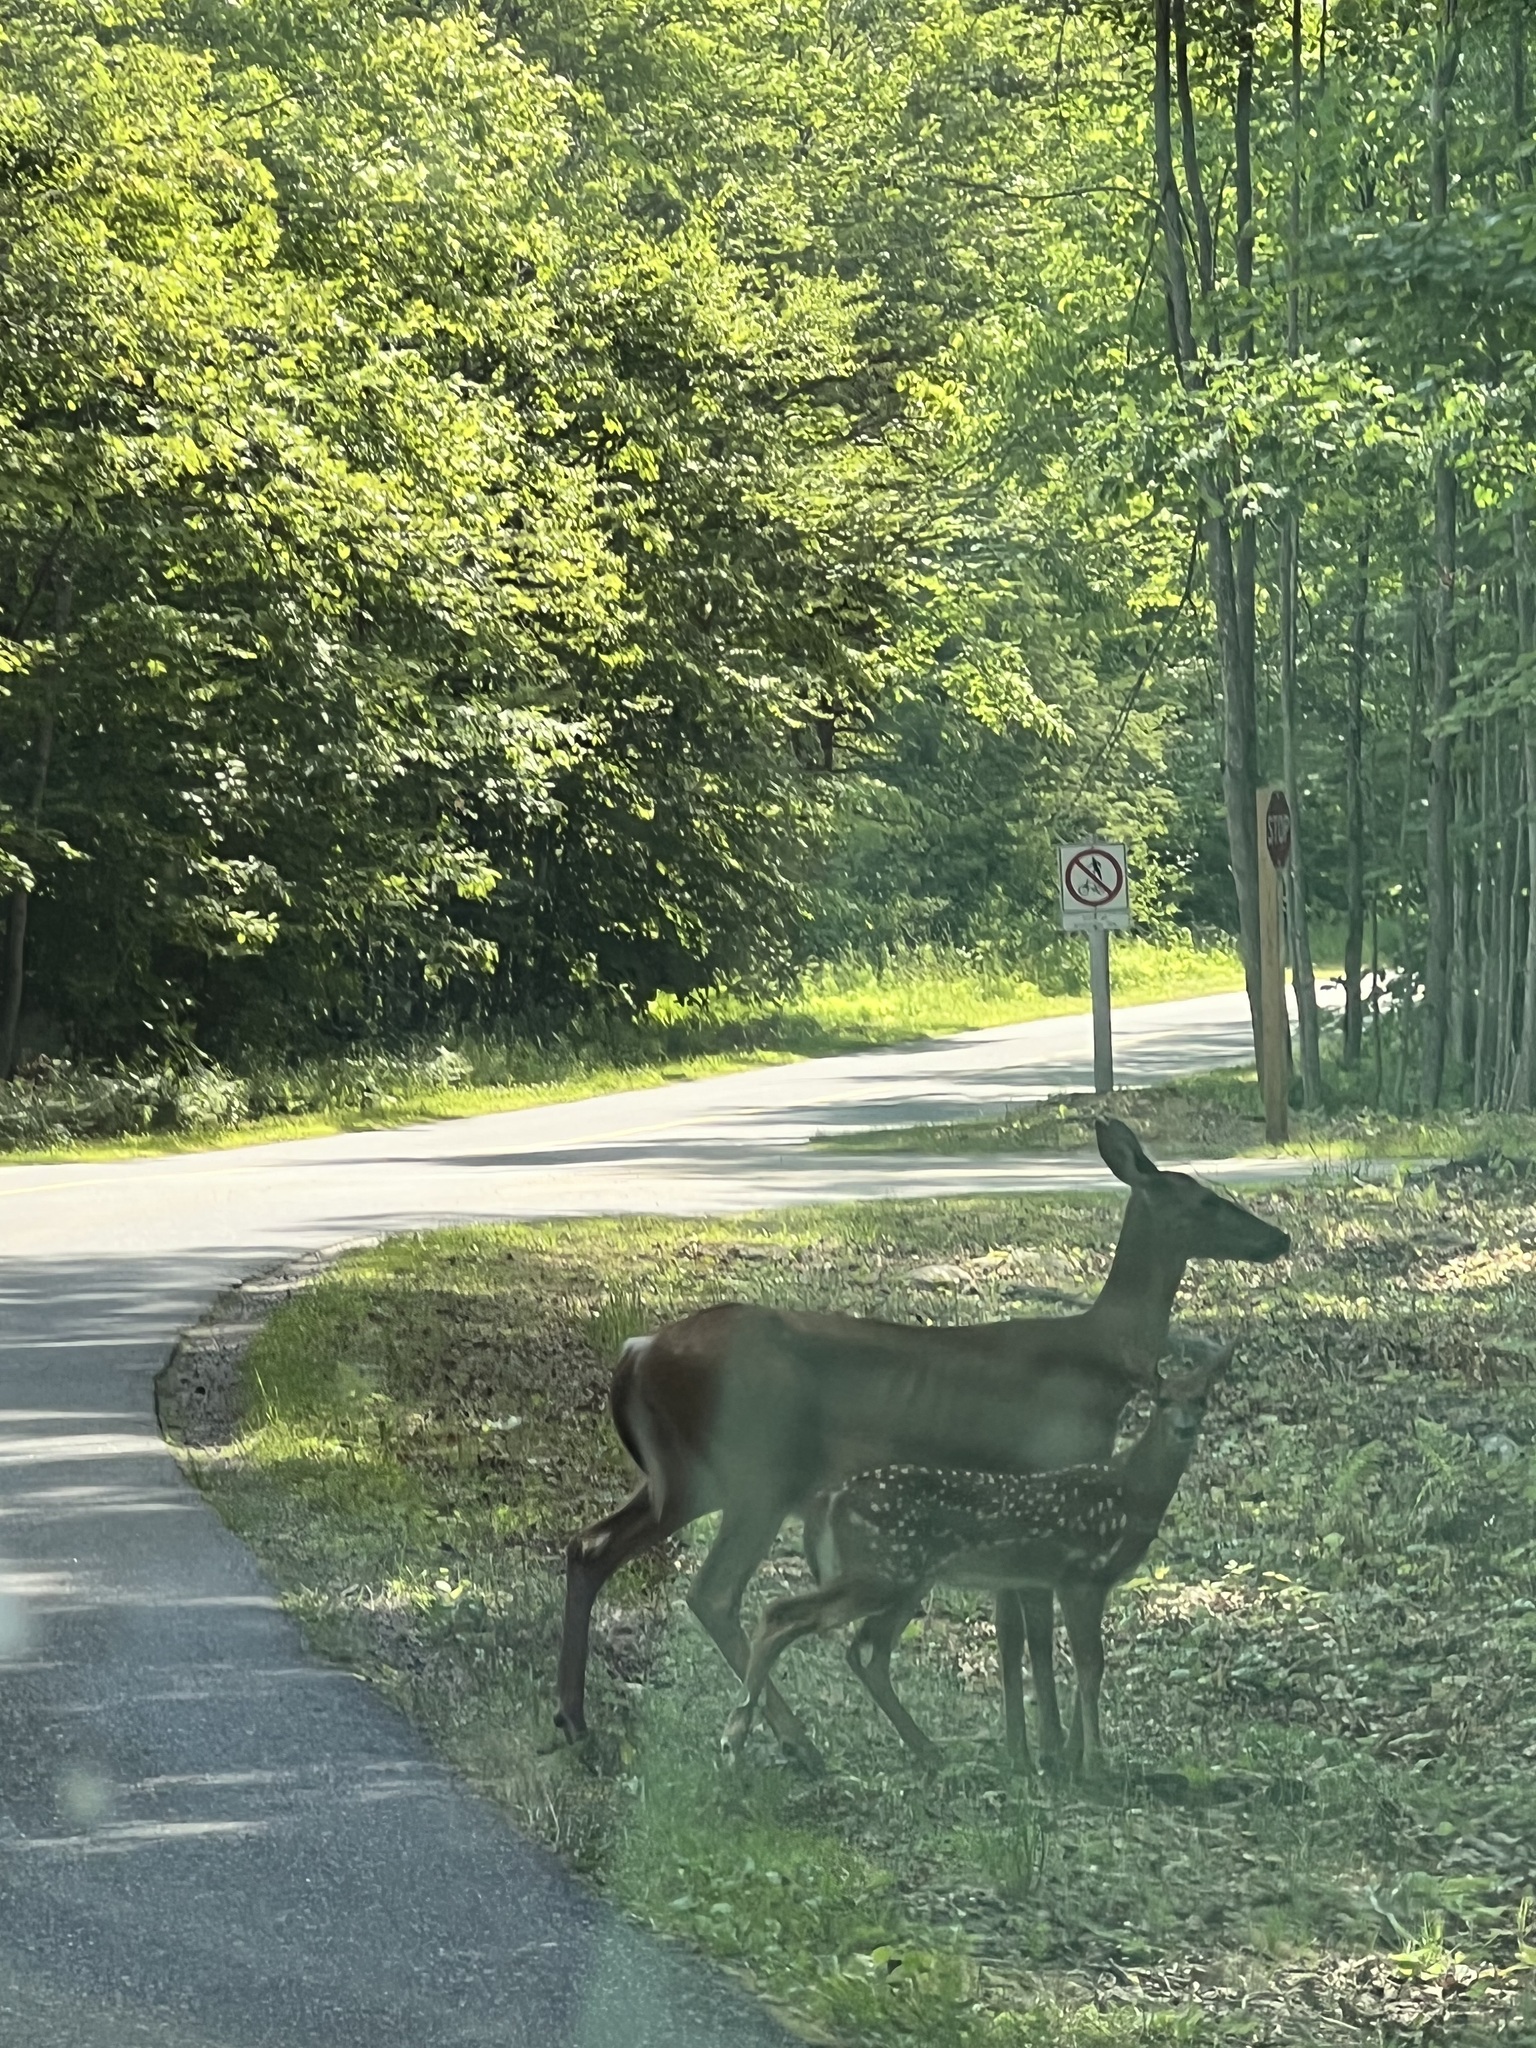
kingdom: Animalia
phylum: Chordata
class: Mammalia
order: Artiodactyla
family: Cervidae
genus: Odocoileus
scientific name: Odocoileus virginianus
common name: White-tailed deer
